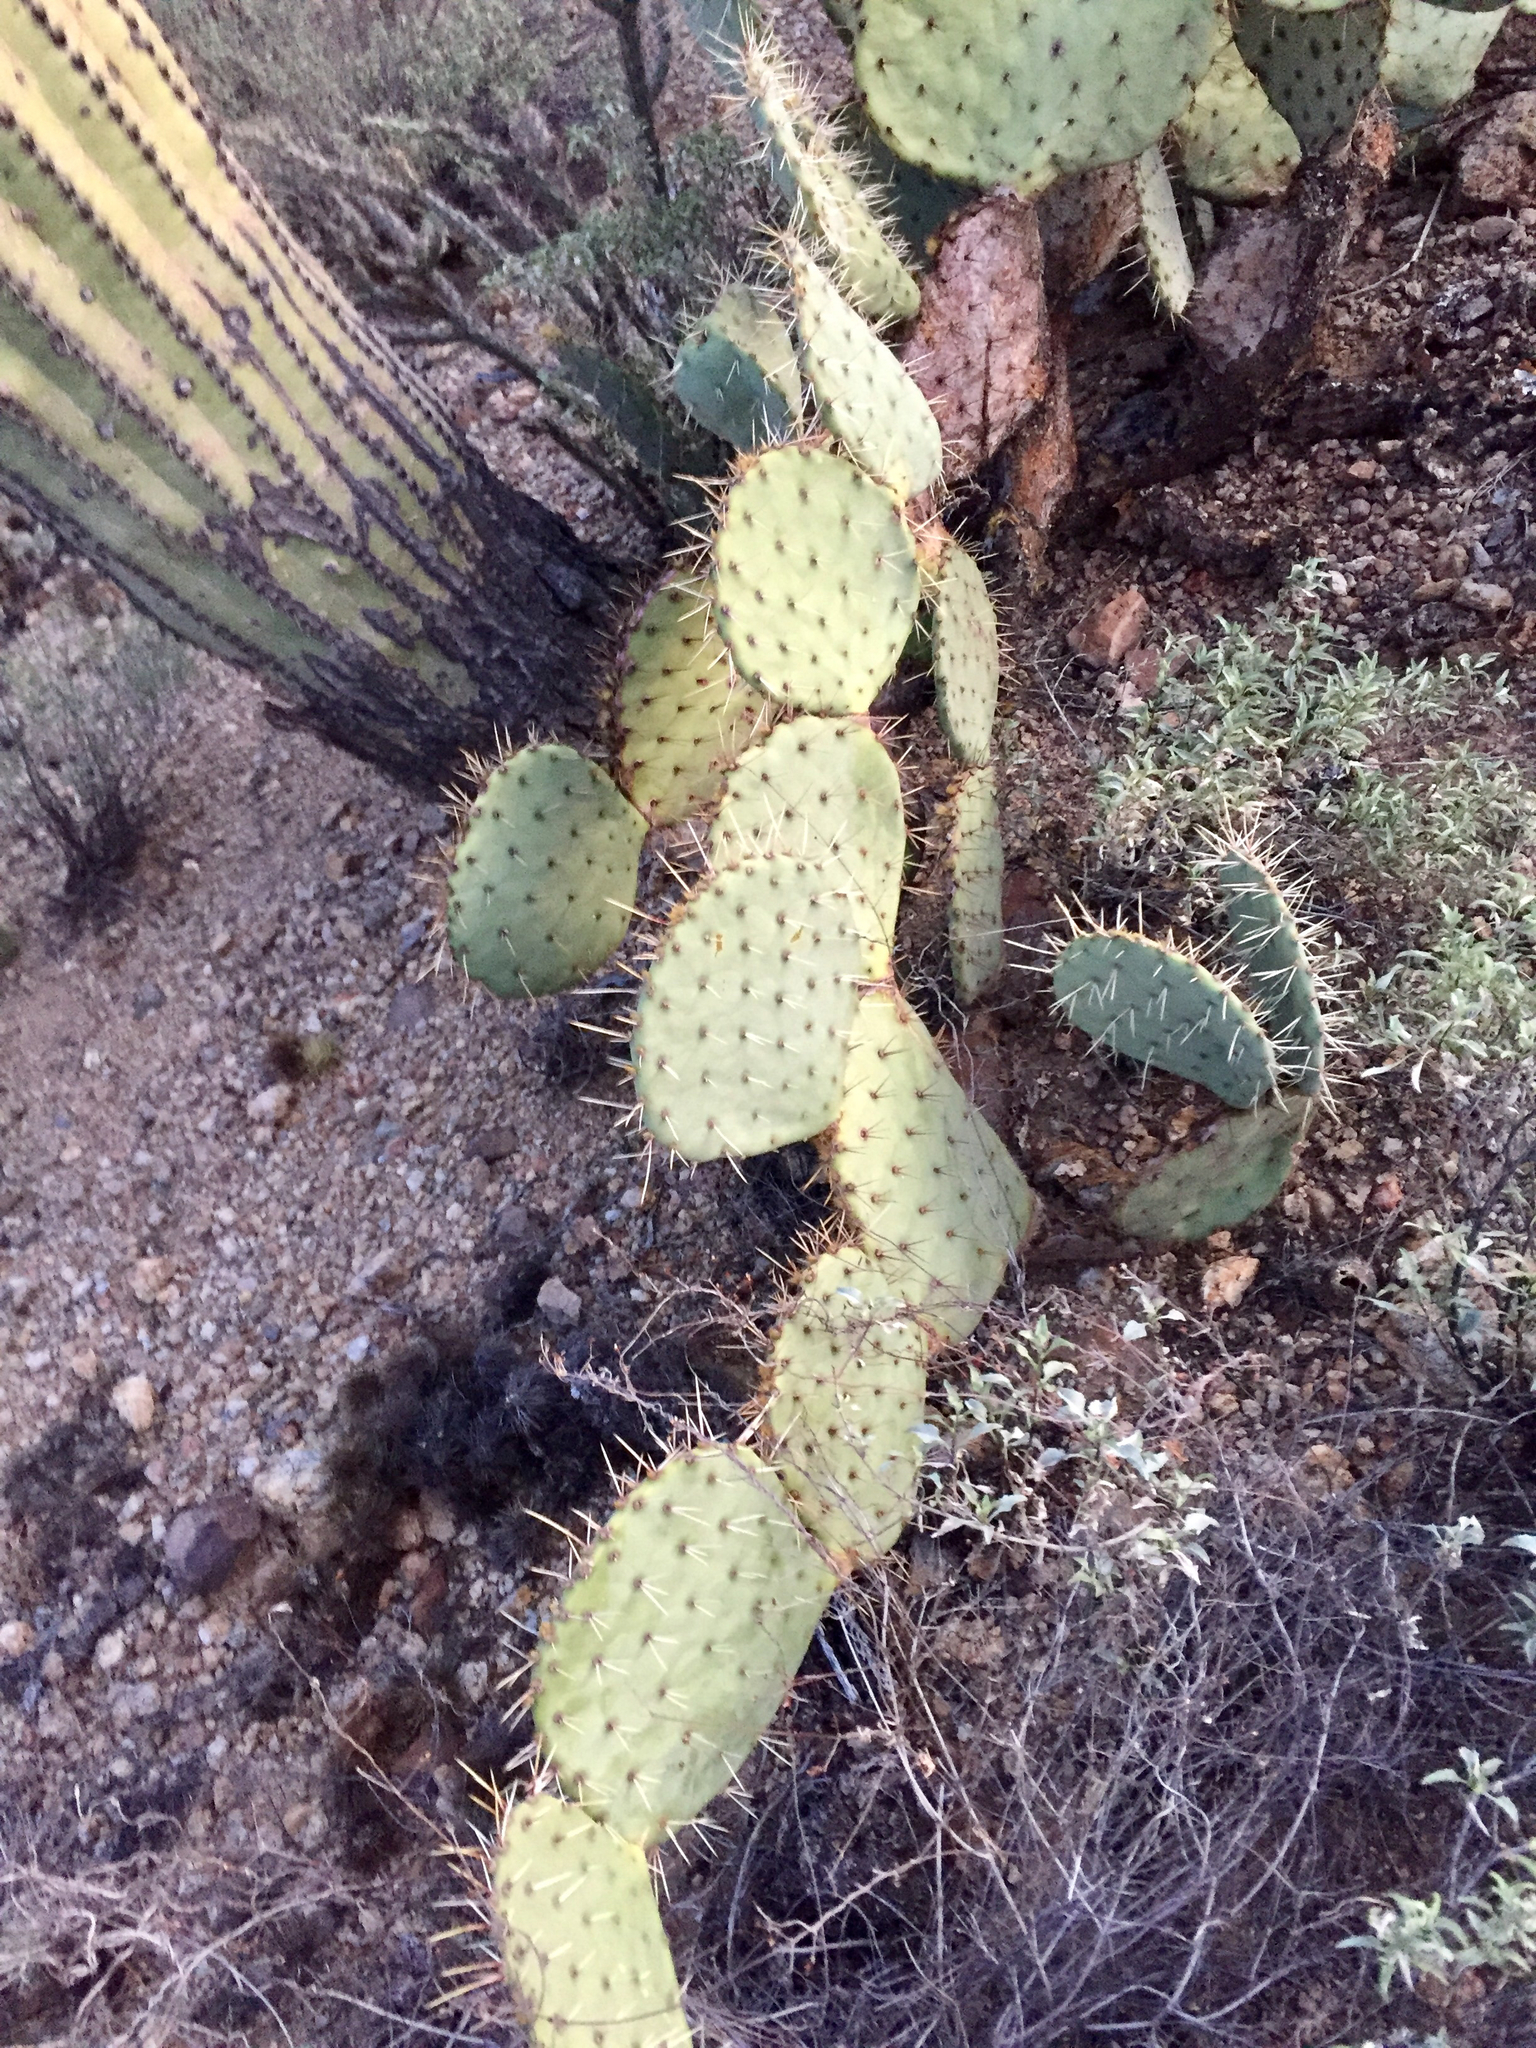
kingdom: Plantae
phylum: Tracheophyta
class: Magnoliopsida
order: Caryophyllales
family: Cactaceae
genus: Opuntia
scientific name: Opuntia phaeacantha
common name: New mexico prickly-pear
